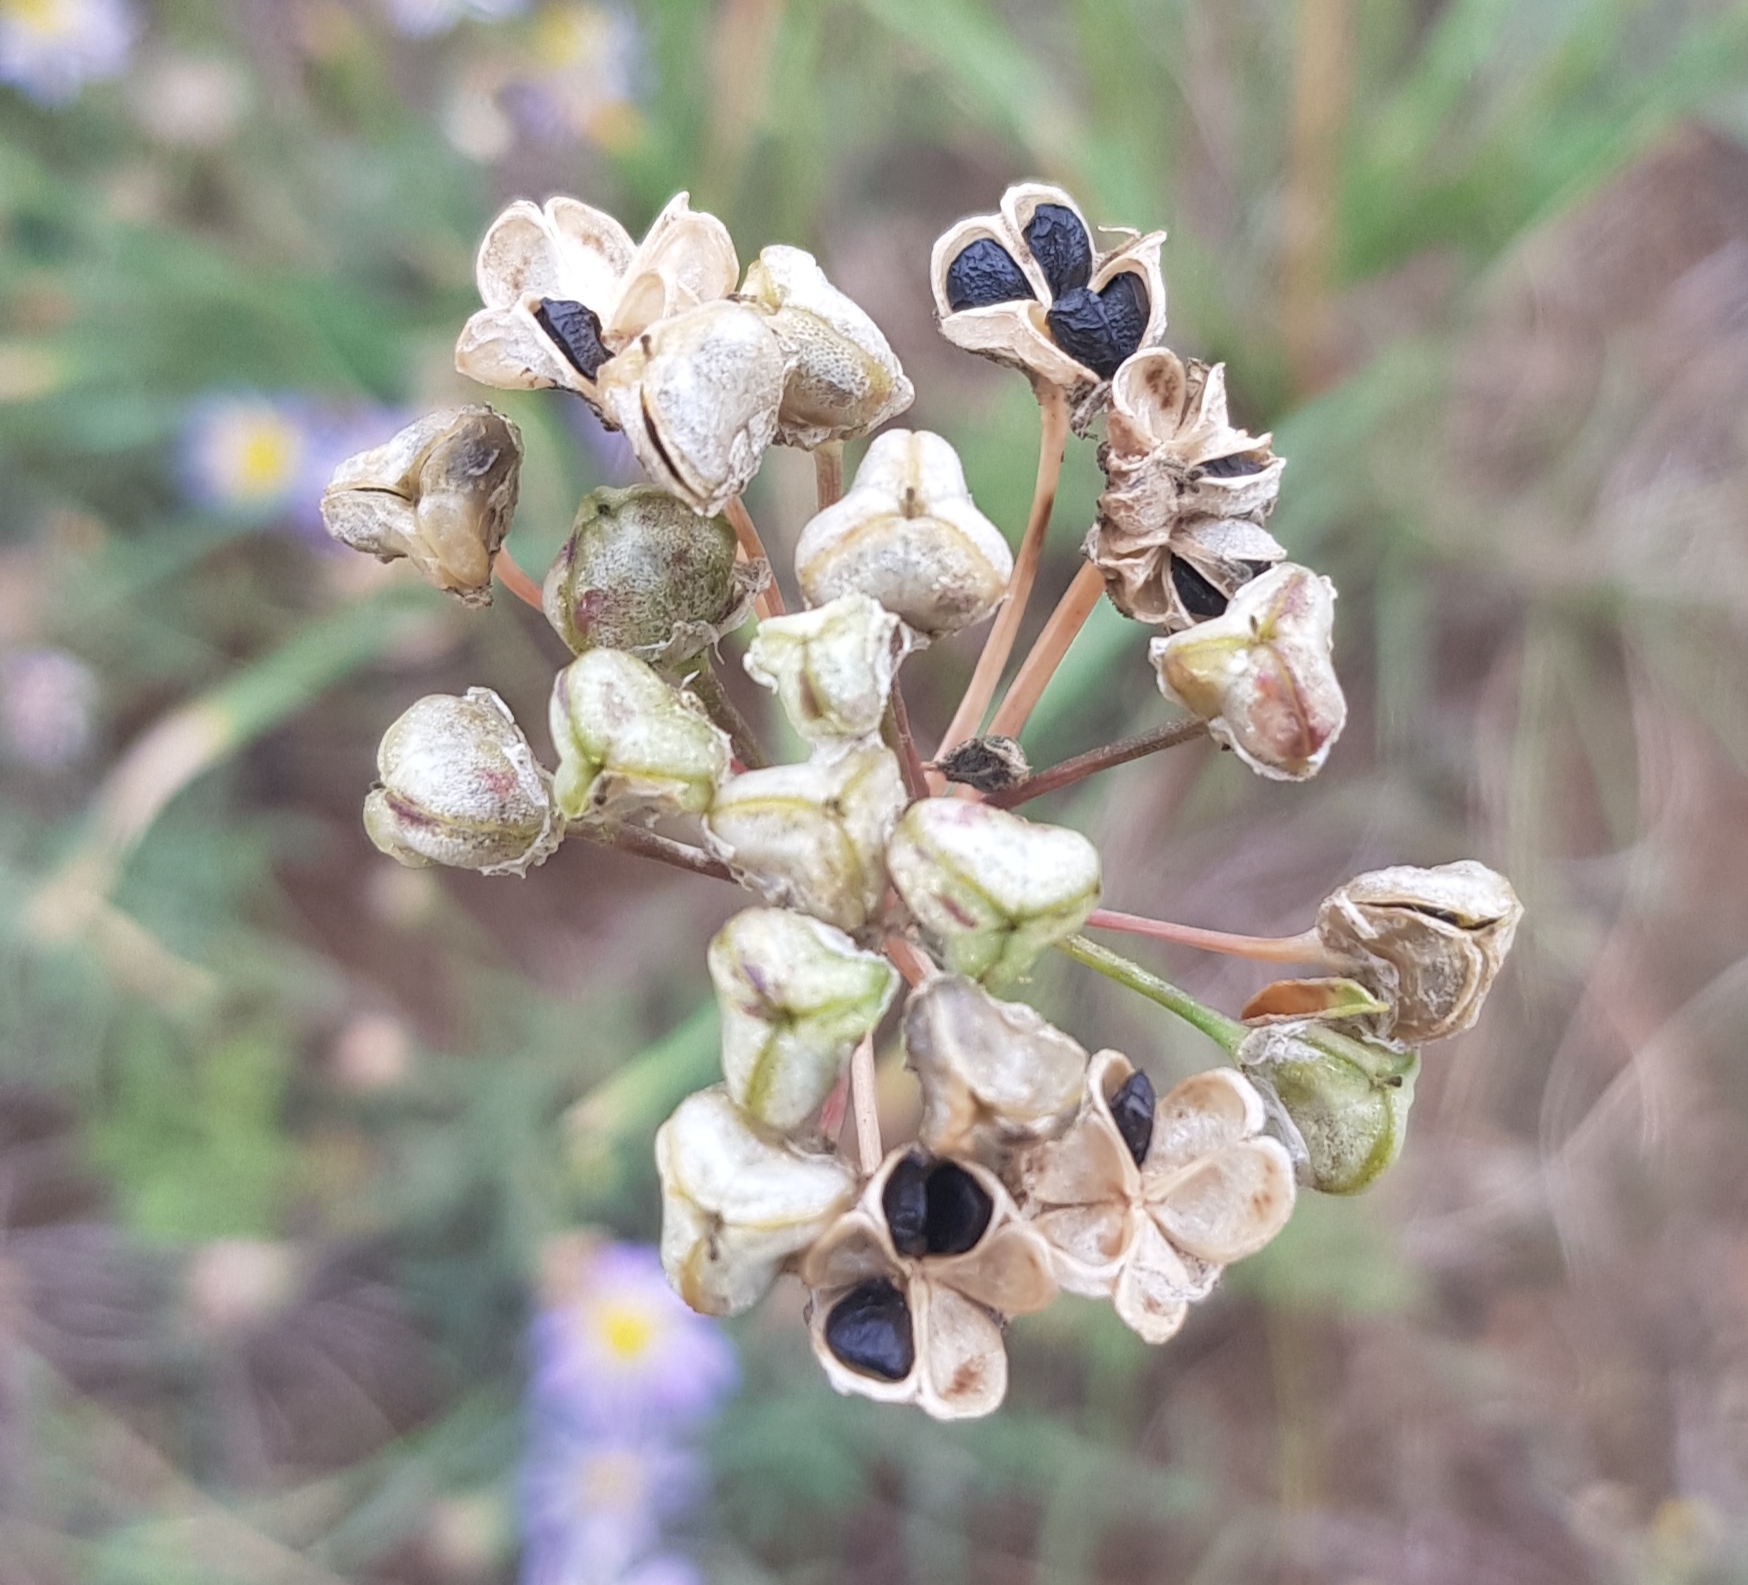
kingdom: Plantae
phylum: Tracheophyta
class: Liliopsida
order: Asparagales
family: Amaryllidaceae
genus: Allium
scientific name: Allium ramosum
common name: Fragrant garlic
